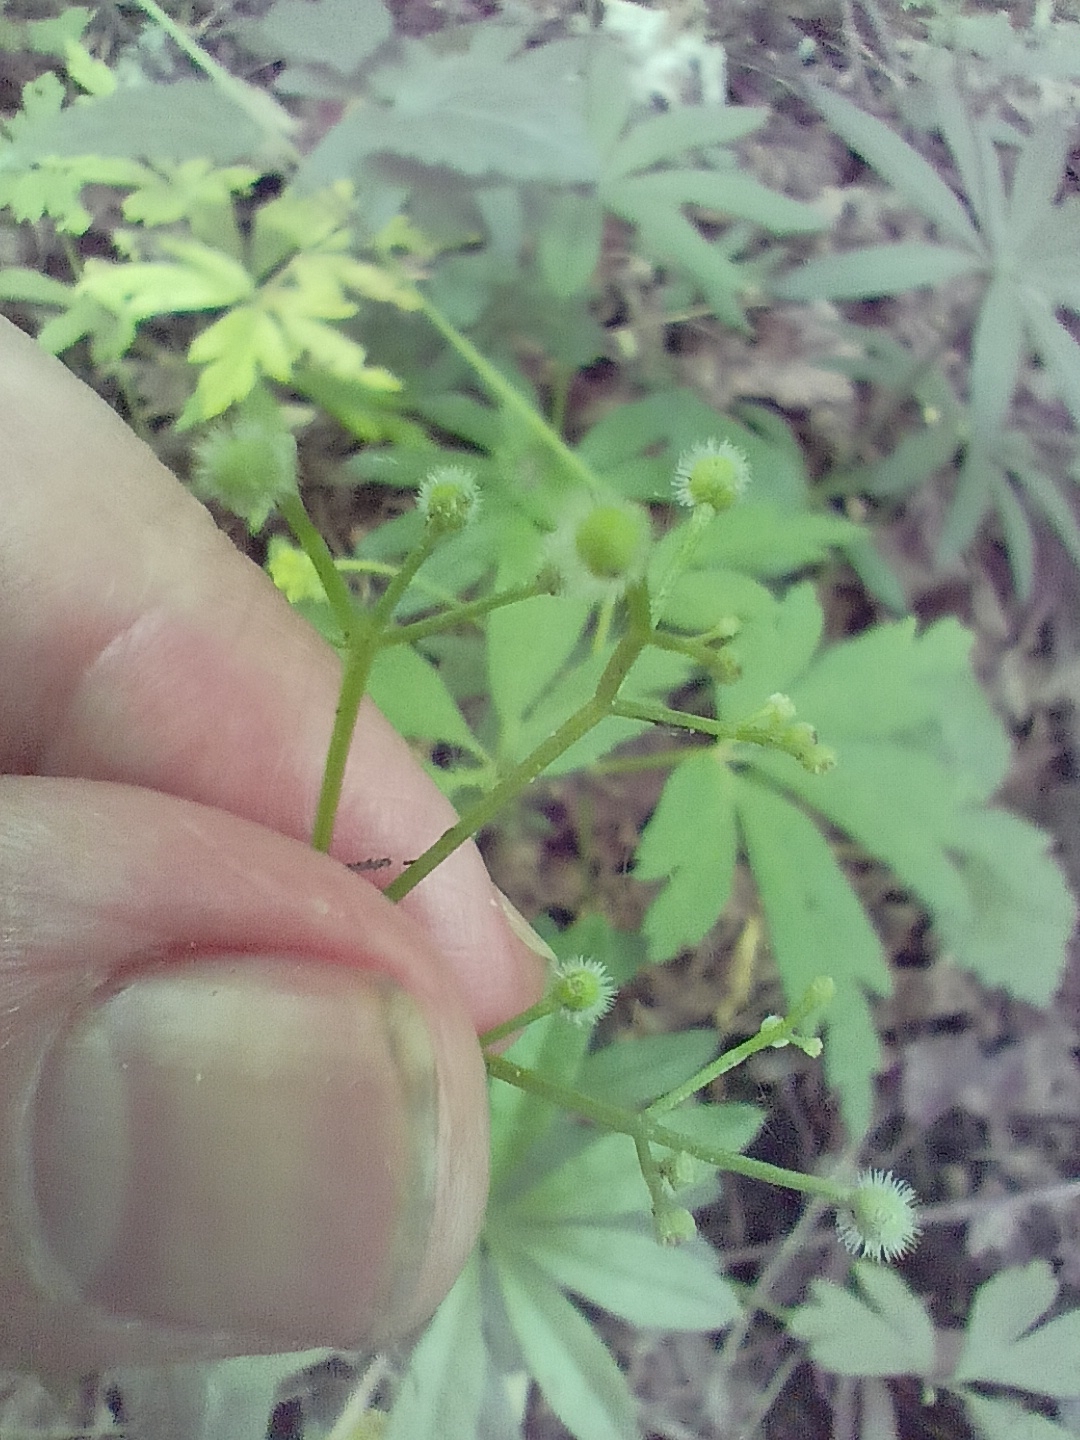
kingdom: Plantae
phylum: Tracheophyta
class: Magnoliopsida
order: Gentianales
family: Rubiaceae
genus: Galium
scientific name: Galium odoratum
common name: Sweet woodruff
